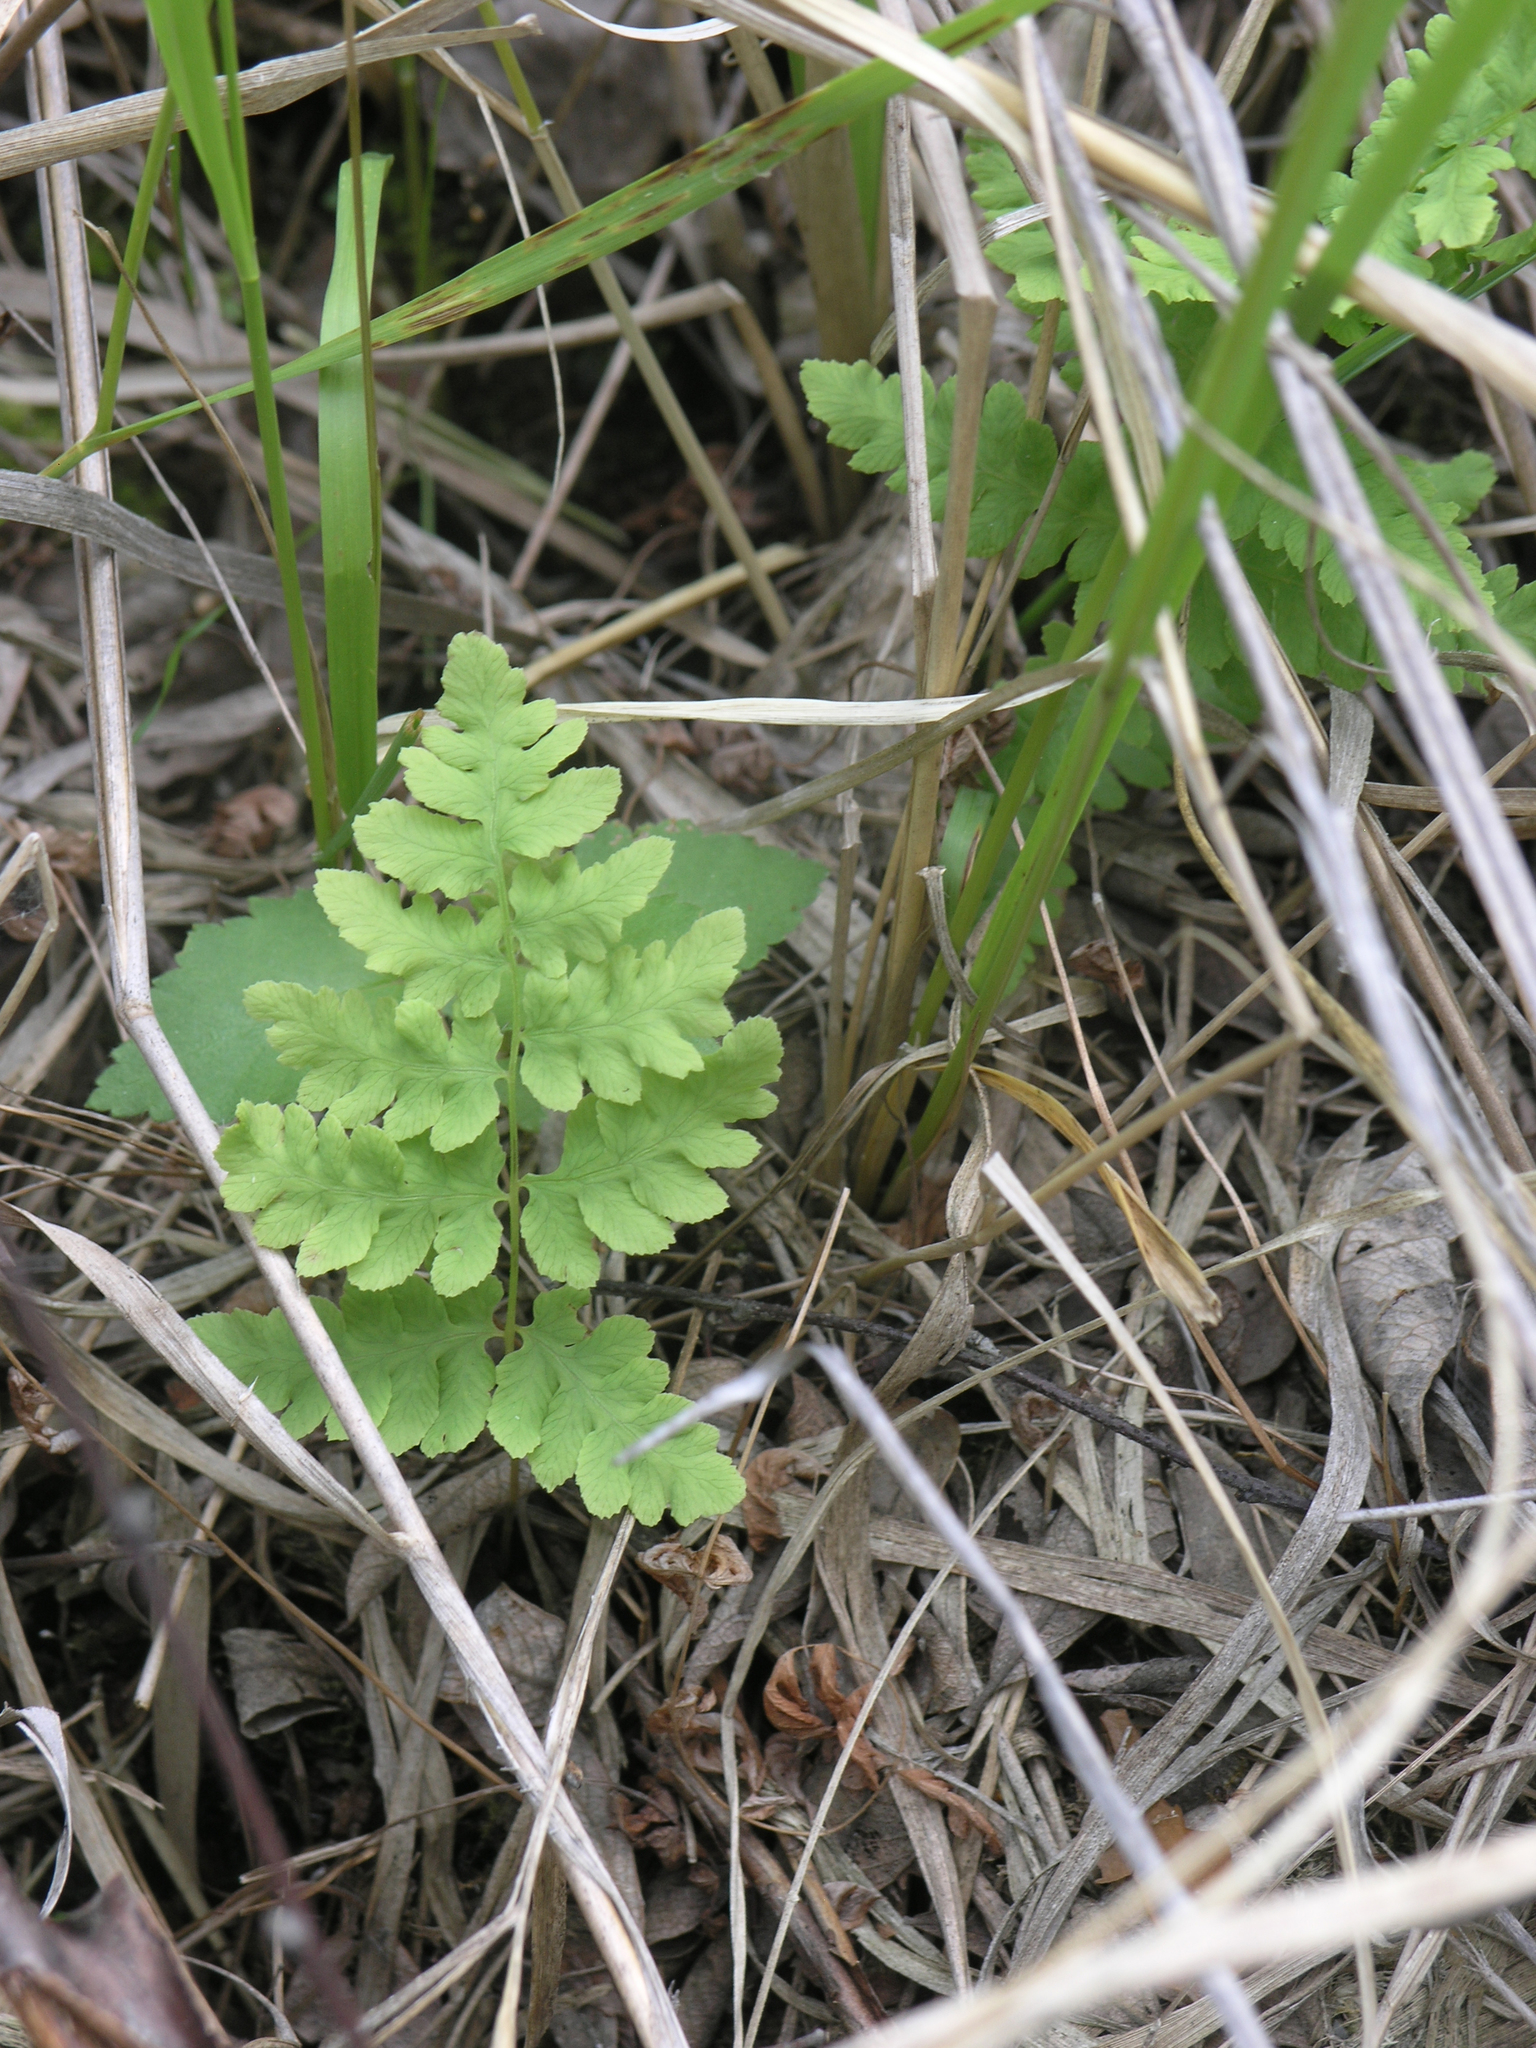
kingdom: Plantae
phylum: Tracheophyta
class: Polypodiopsida
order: Polypodiales
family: Dryopteridaceae
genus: Dryopteris
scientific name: Dryopteris cristata
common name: Crested wood fern
